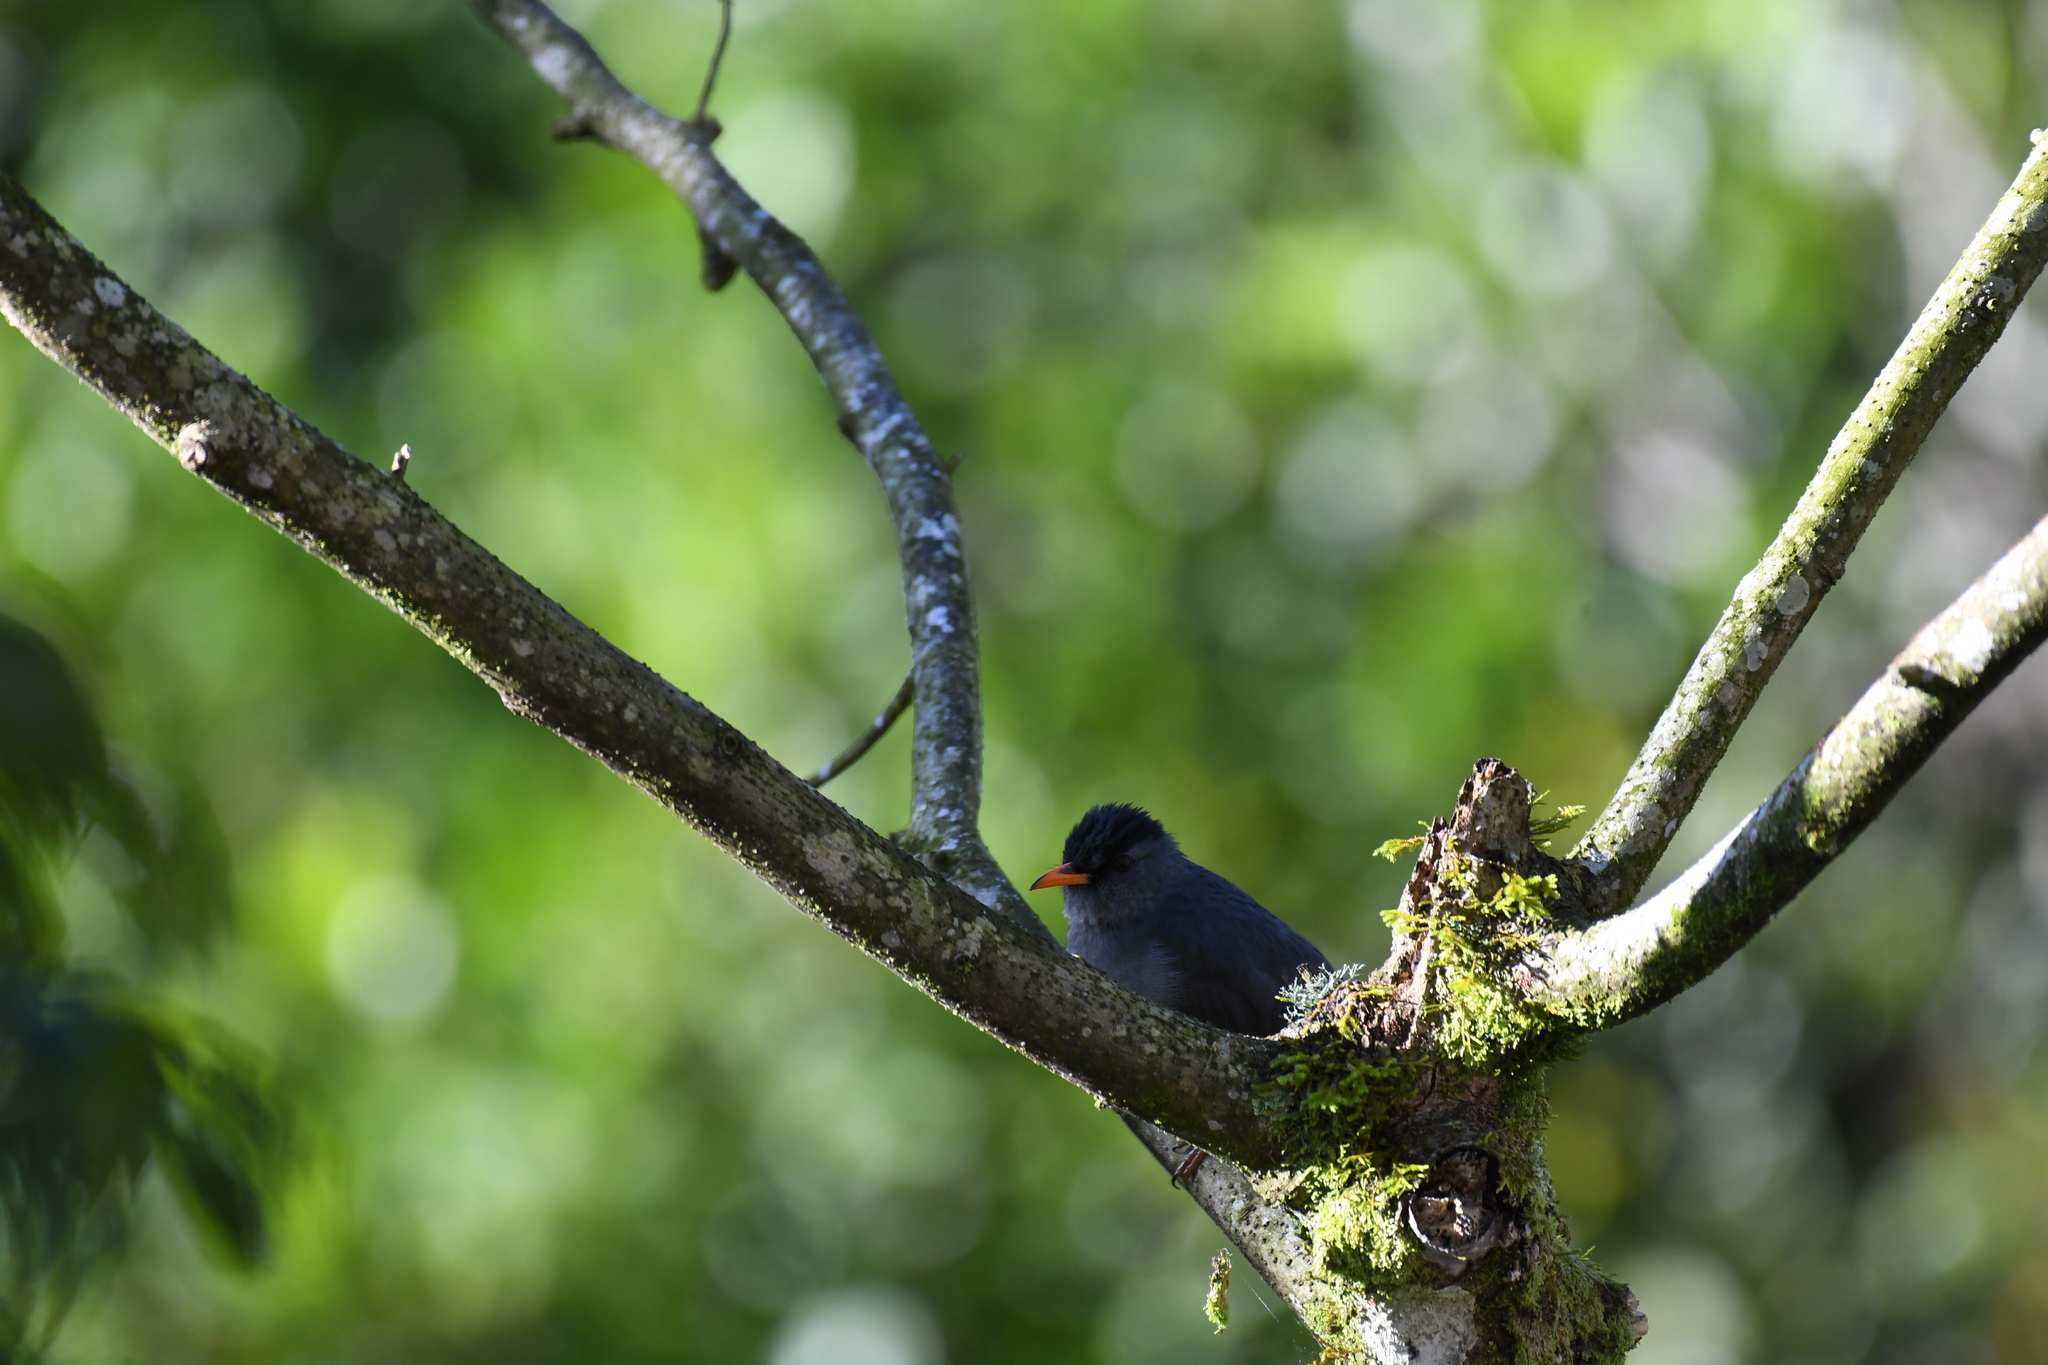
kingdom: Animalia
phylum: Chordata
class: Aves
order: Passeriformes
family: Pycnonotidae
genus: Hypsipetes
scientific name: Hypsipetes madagascariensis
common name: Malagasy bulbul
